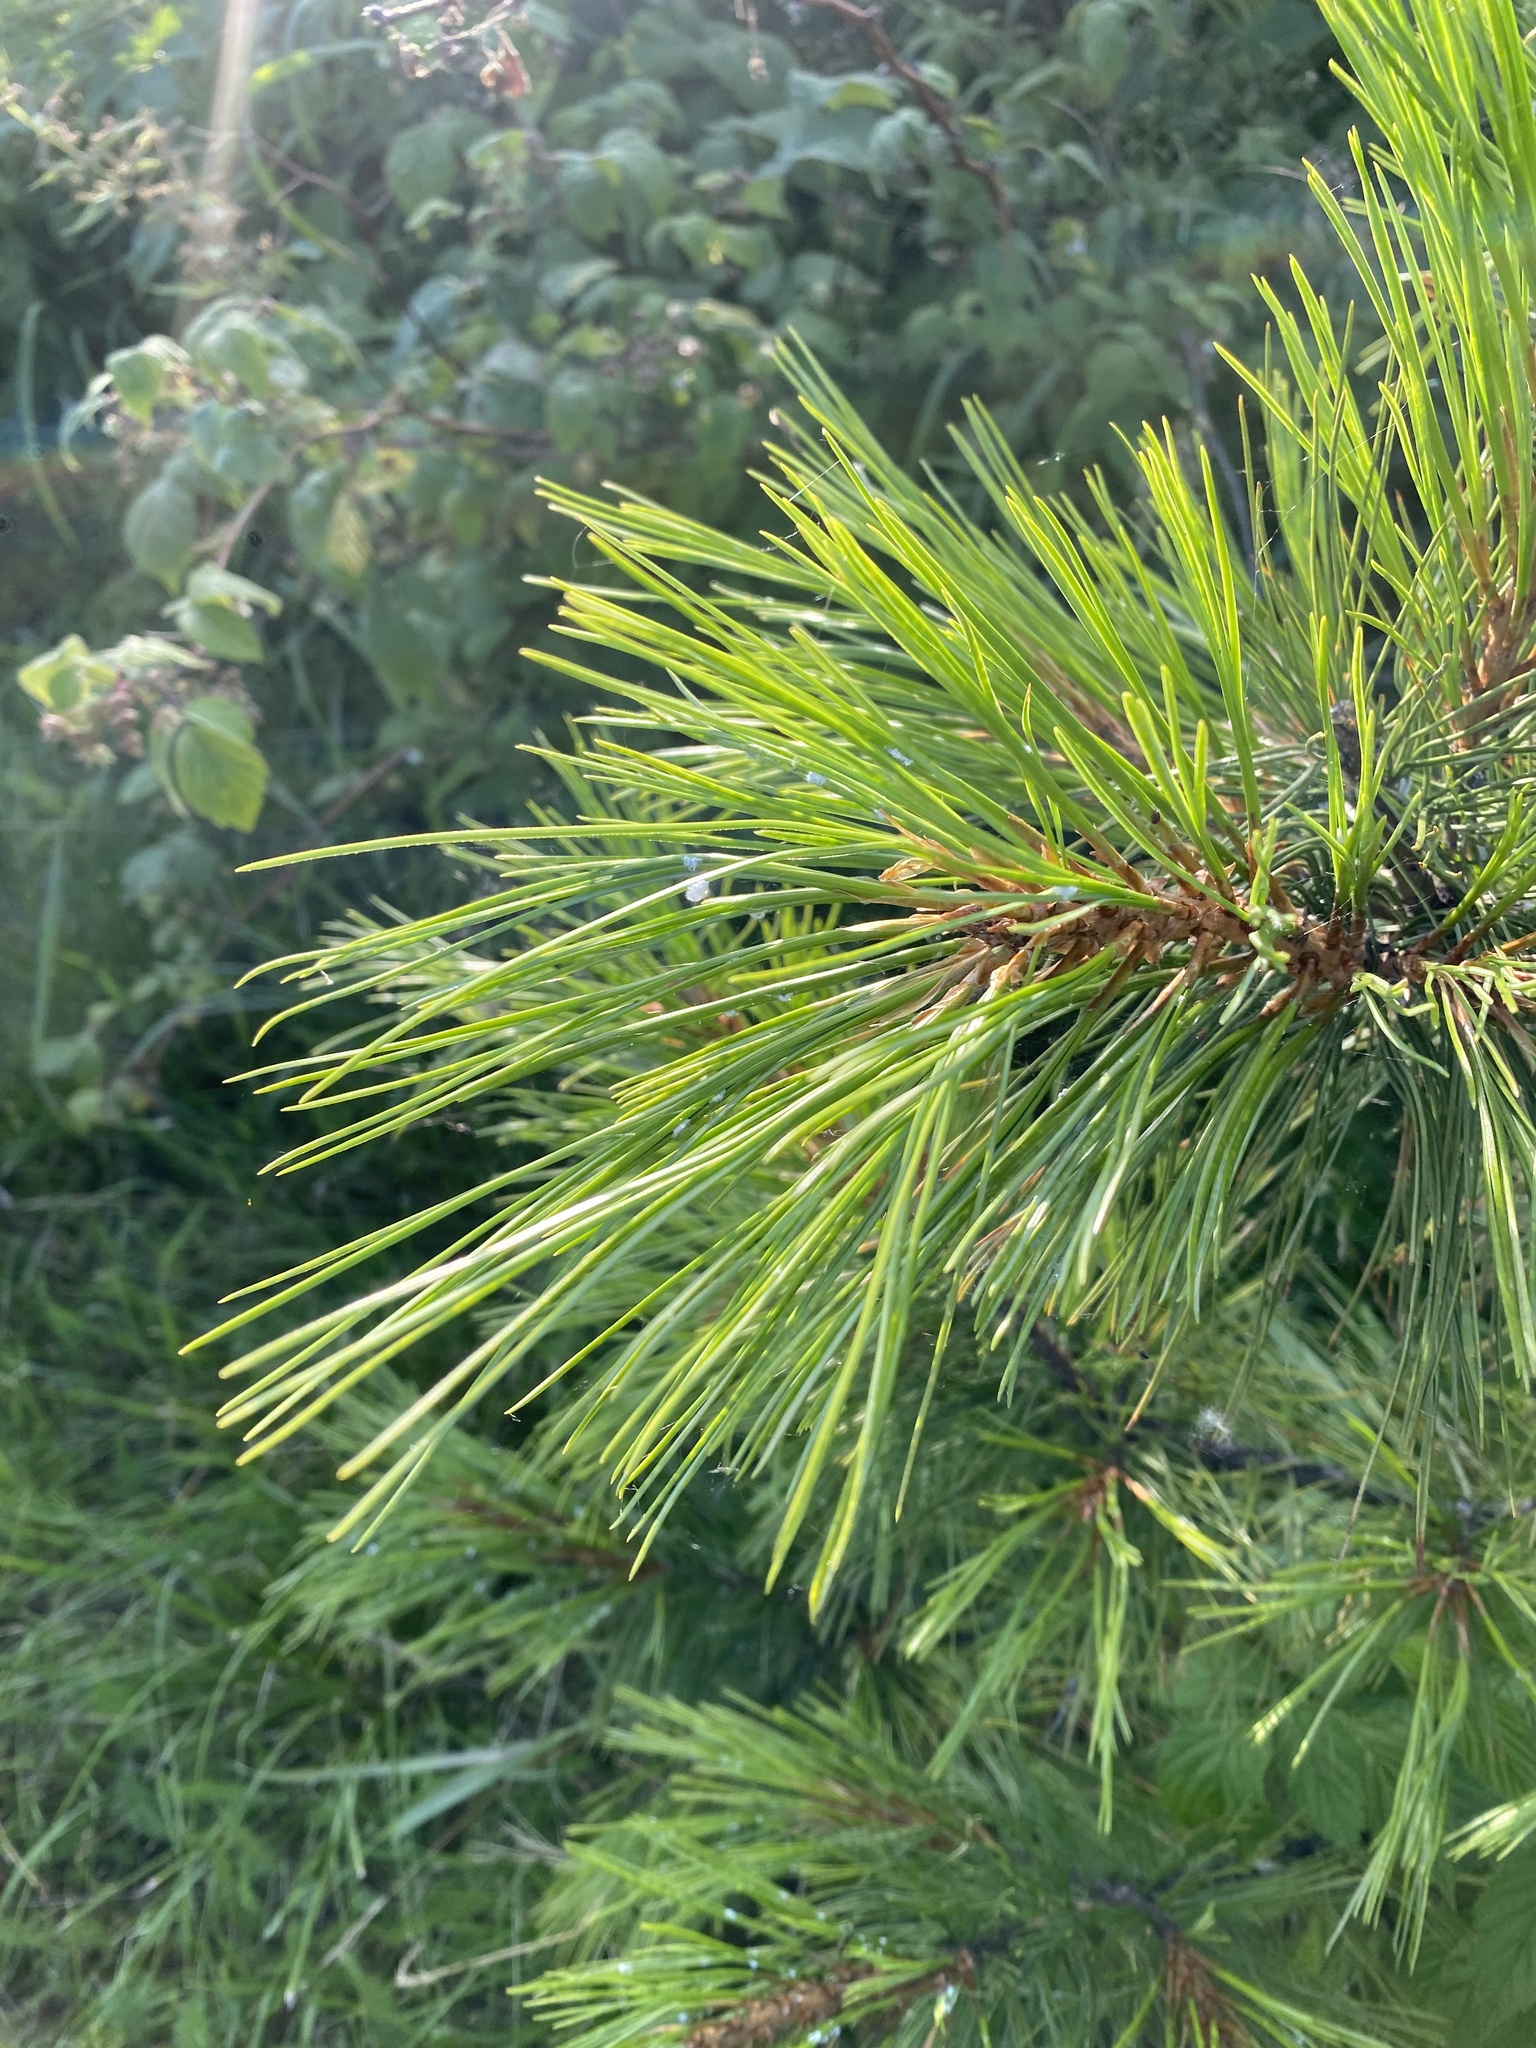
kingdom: Plantae
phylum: Tracheophyta
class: Pinopsida
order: Pinales
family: Pinaceae
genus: Pinus
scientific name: Pinus sibirica
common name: Siberian pine
